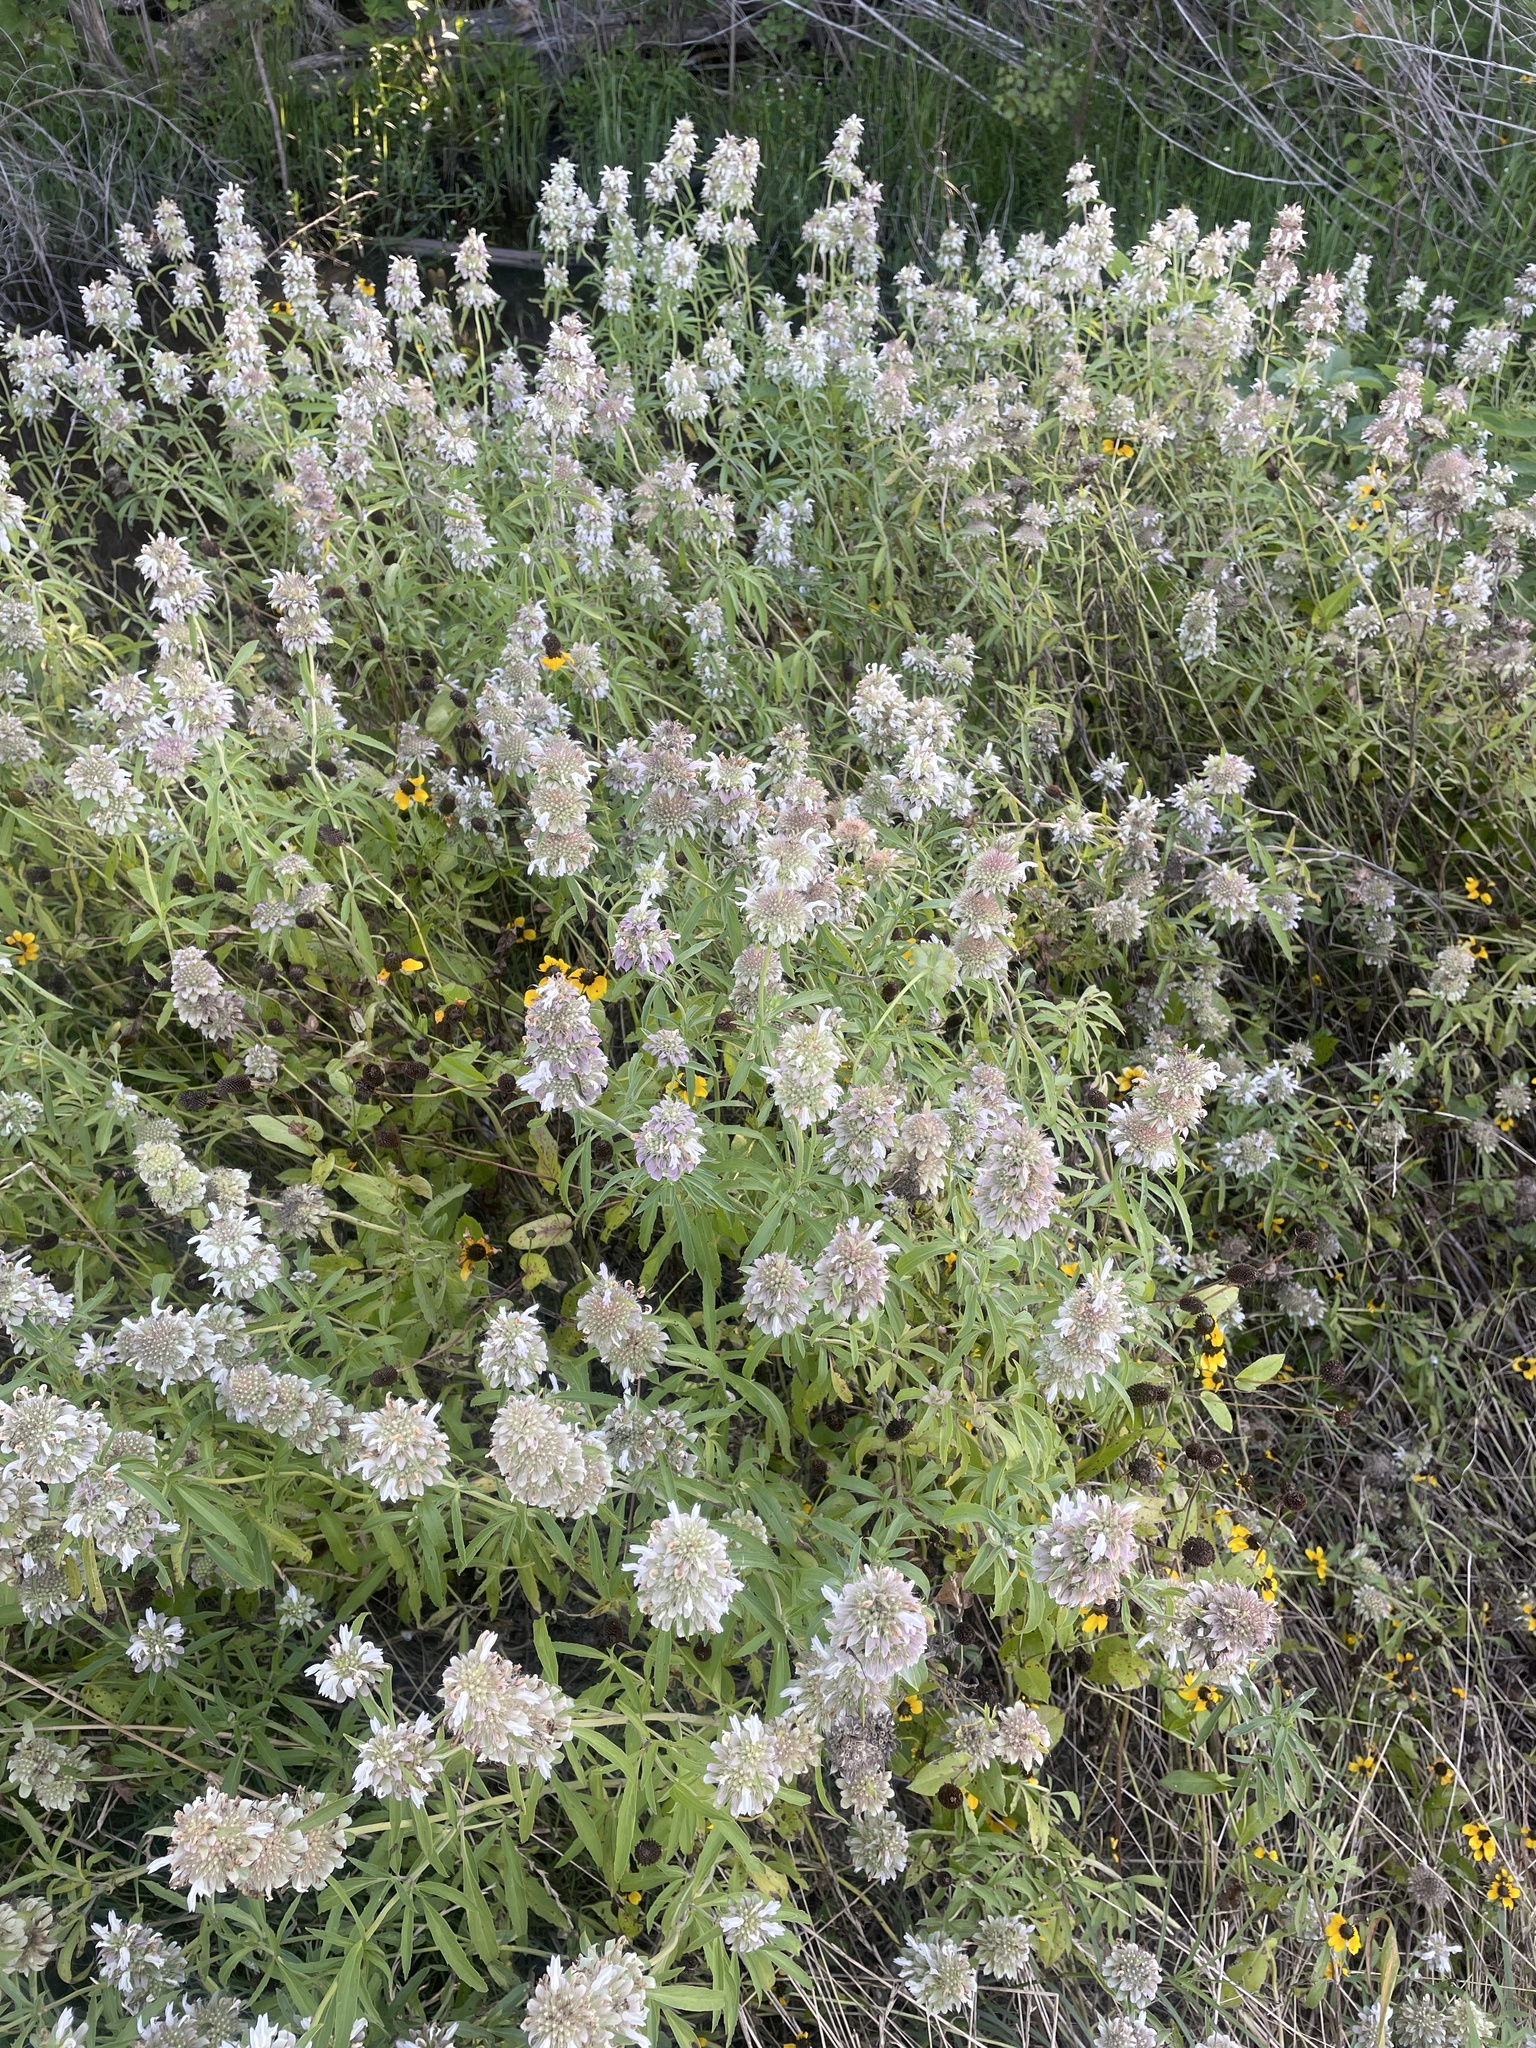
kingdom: Plantae
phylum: Tracheophyta
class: Magnoliopsida
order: Lamiales
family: Lamiaceae
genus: Monarda
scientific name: Monarda citriodora
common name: Lemon beebalm
